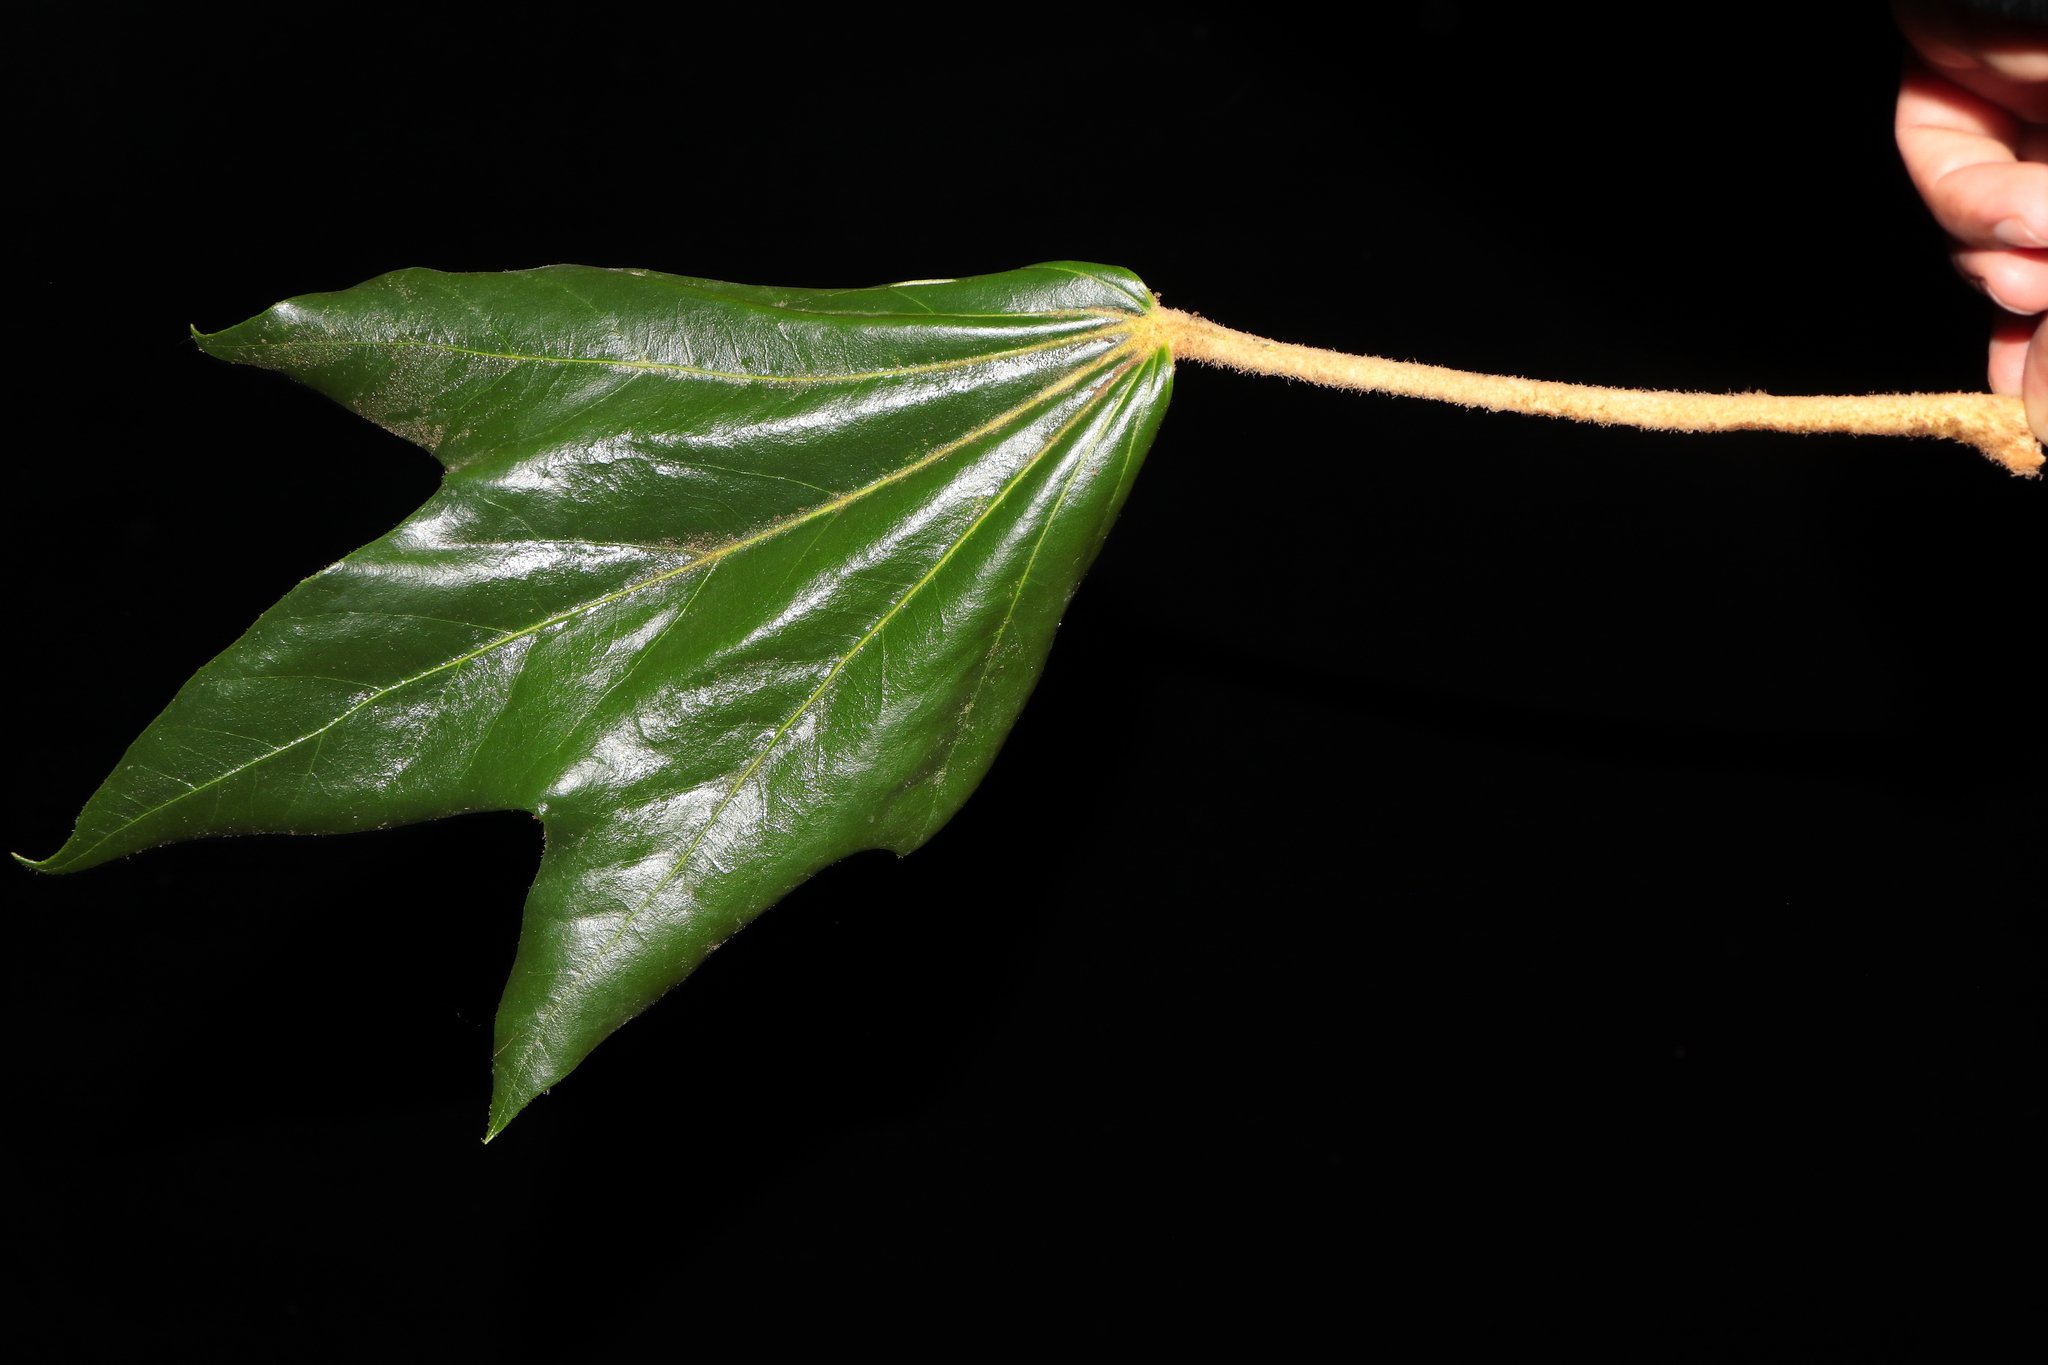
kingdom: Plantae
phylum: Tracheophyta
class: Magnoliopsida
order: Apiales
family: Araliaceae
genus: Oreopanax
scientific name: Oreopanax oroyanus
